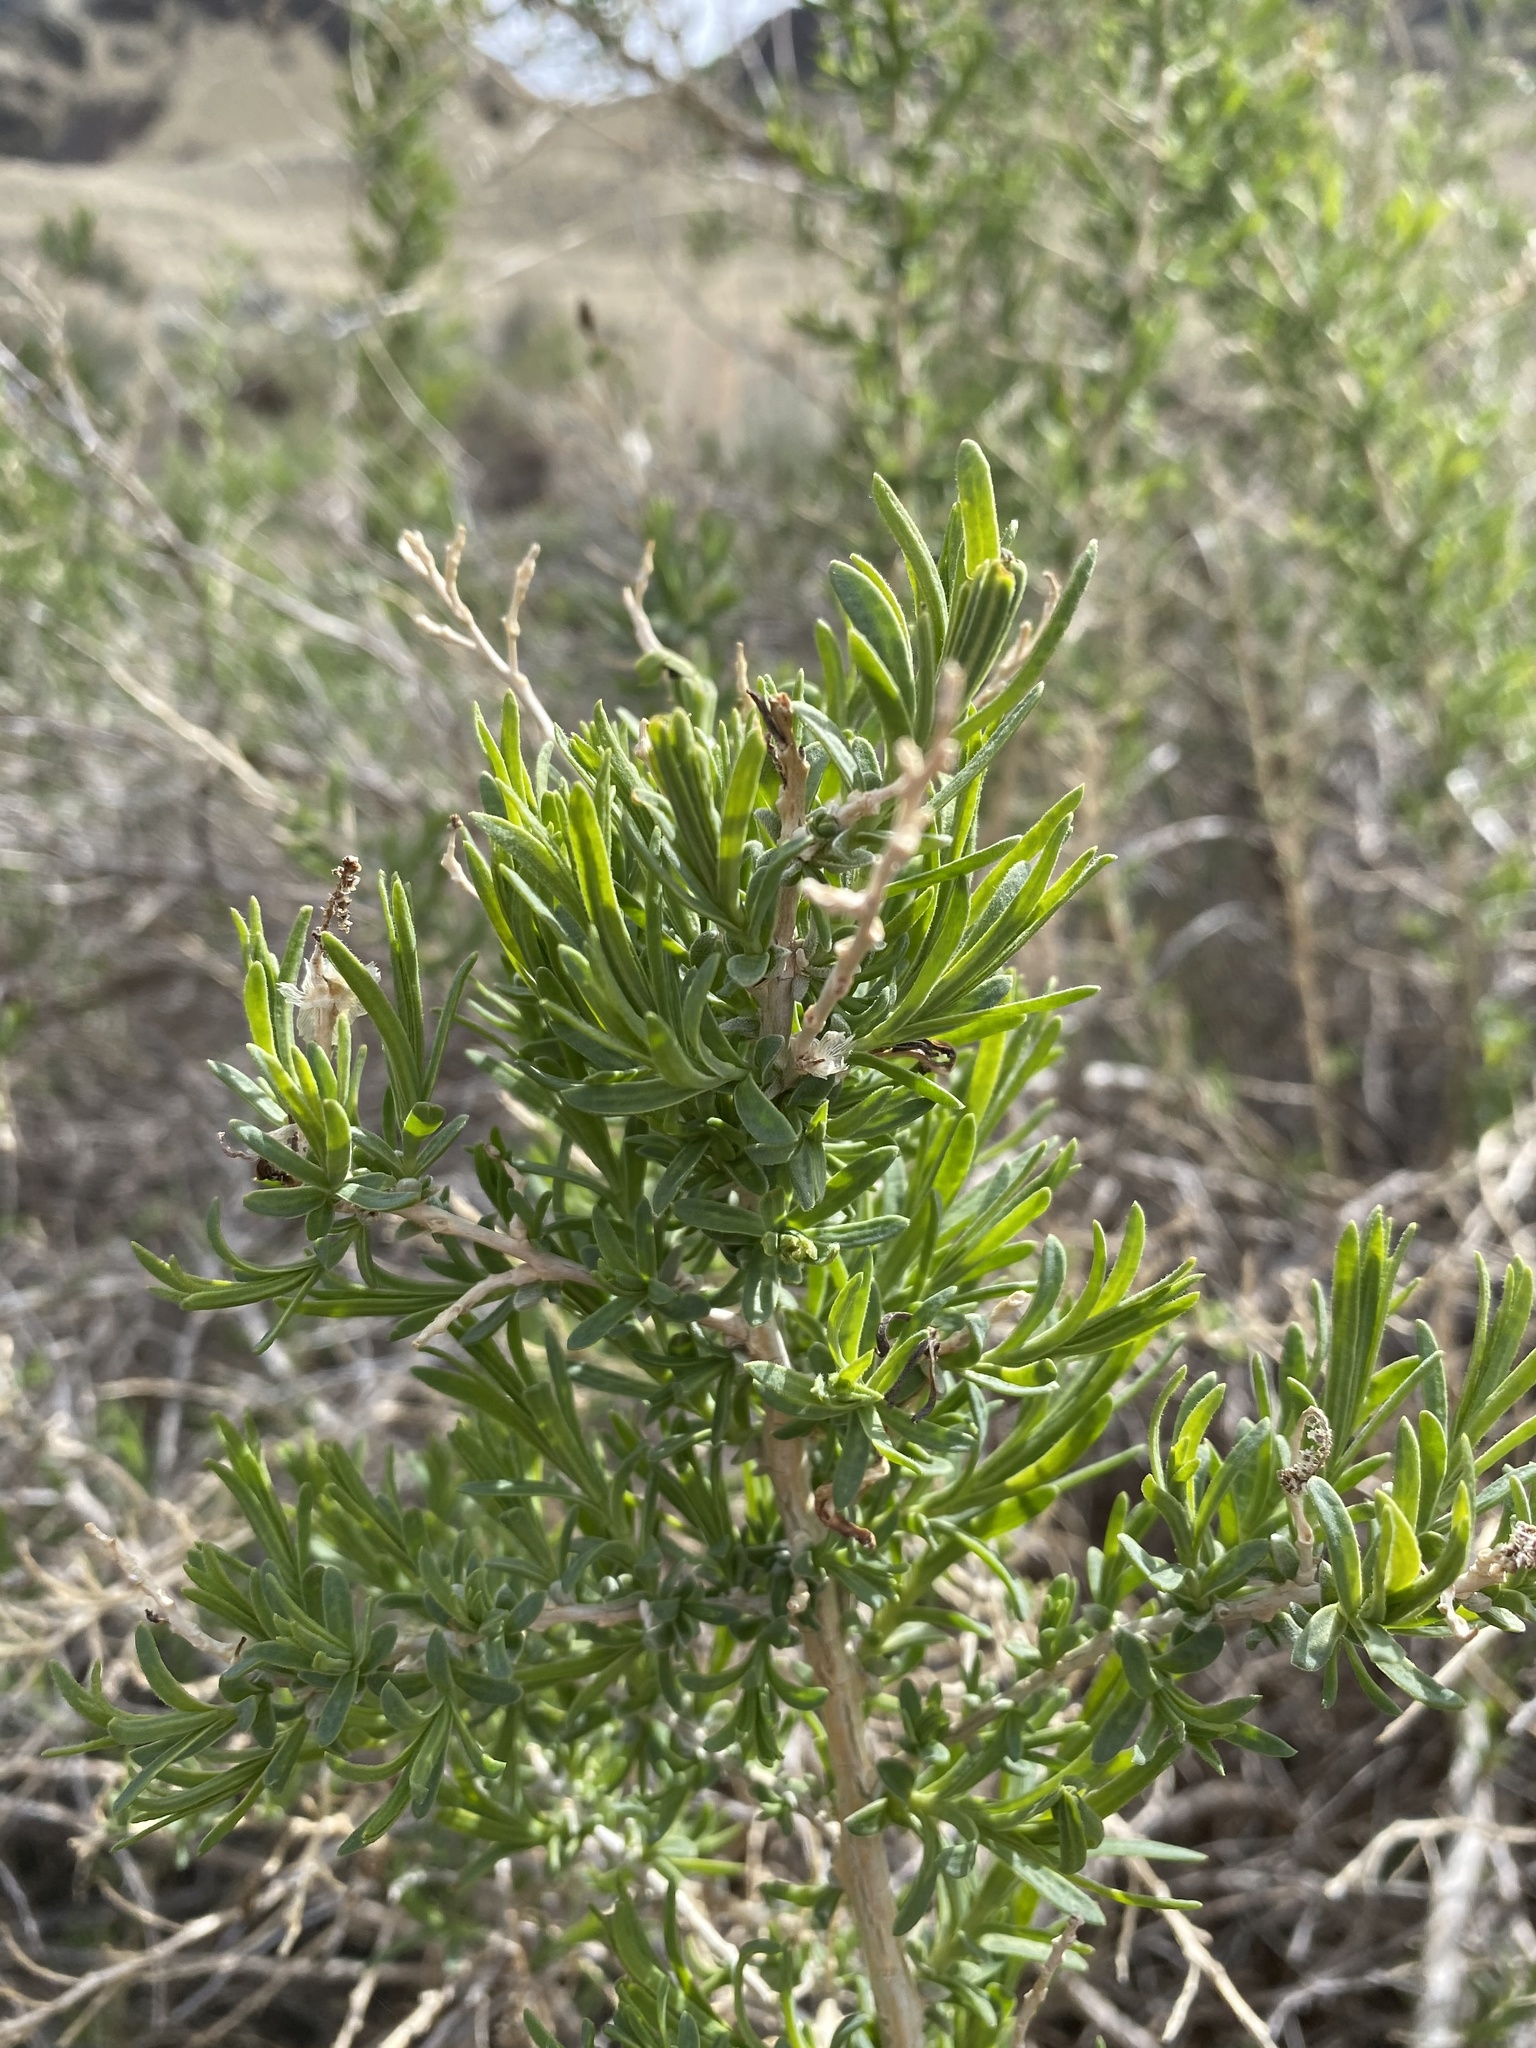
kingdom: Plantae
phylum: Tracheophyta
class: Magnoliopsida
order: Caryophyllales
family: Sarcobataceae
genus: Sarcobatus
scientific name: Sarcobatus vermiculatus
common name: Greasewood
